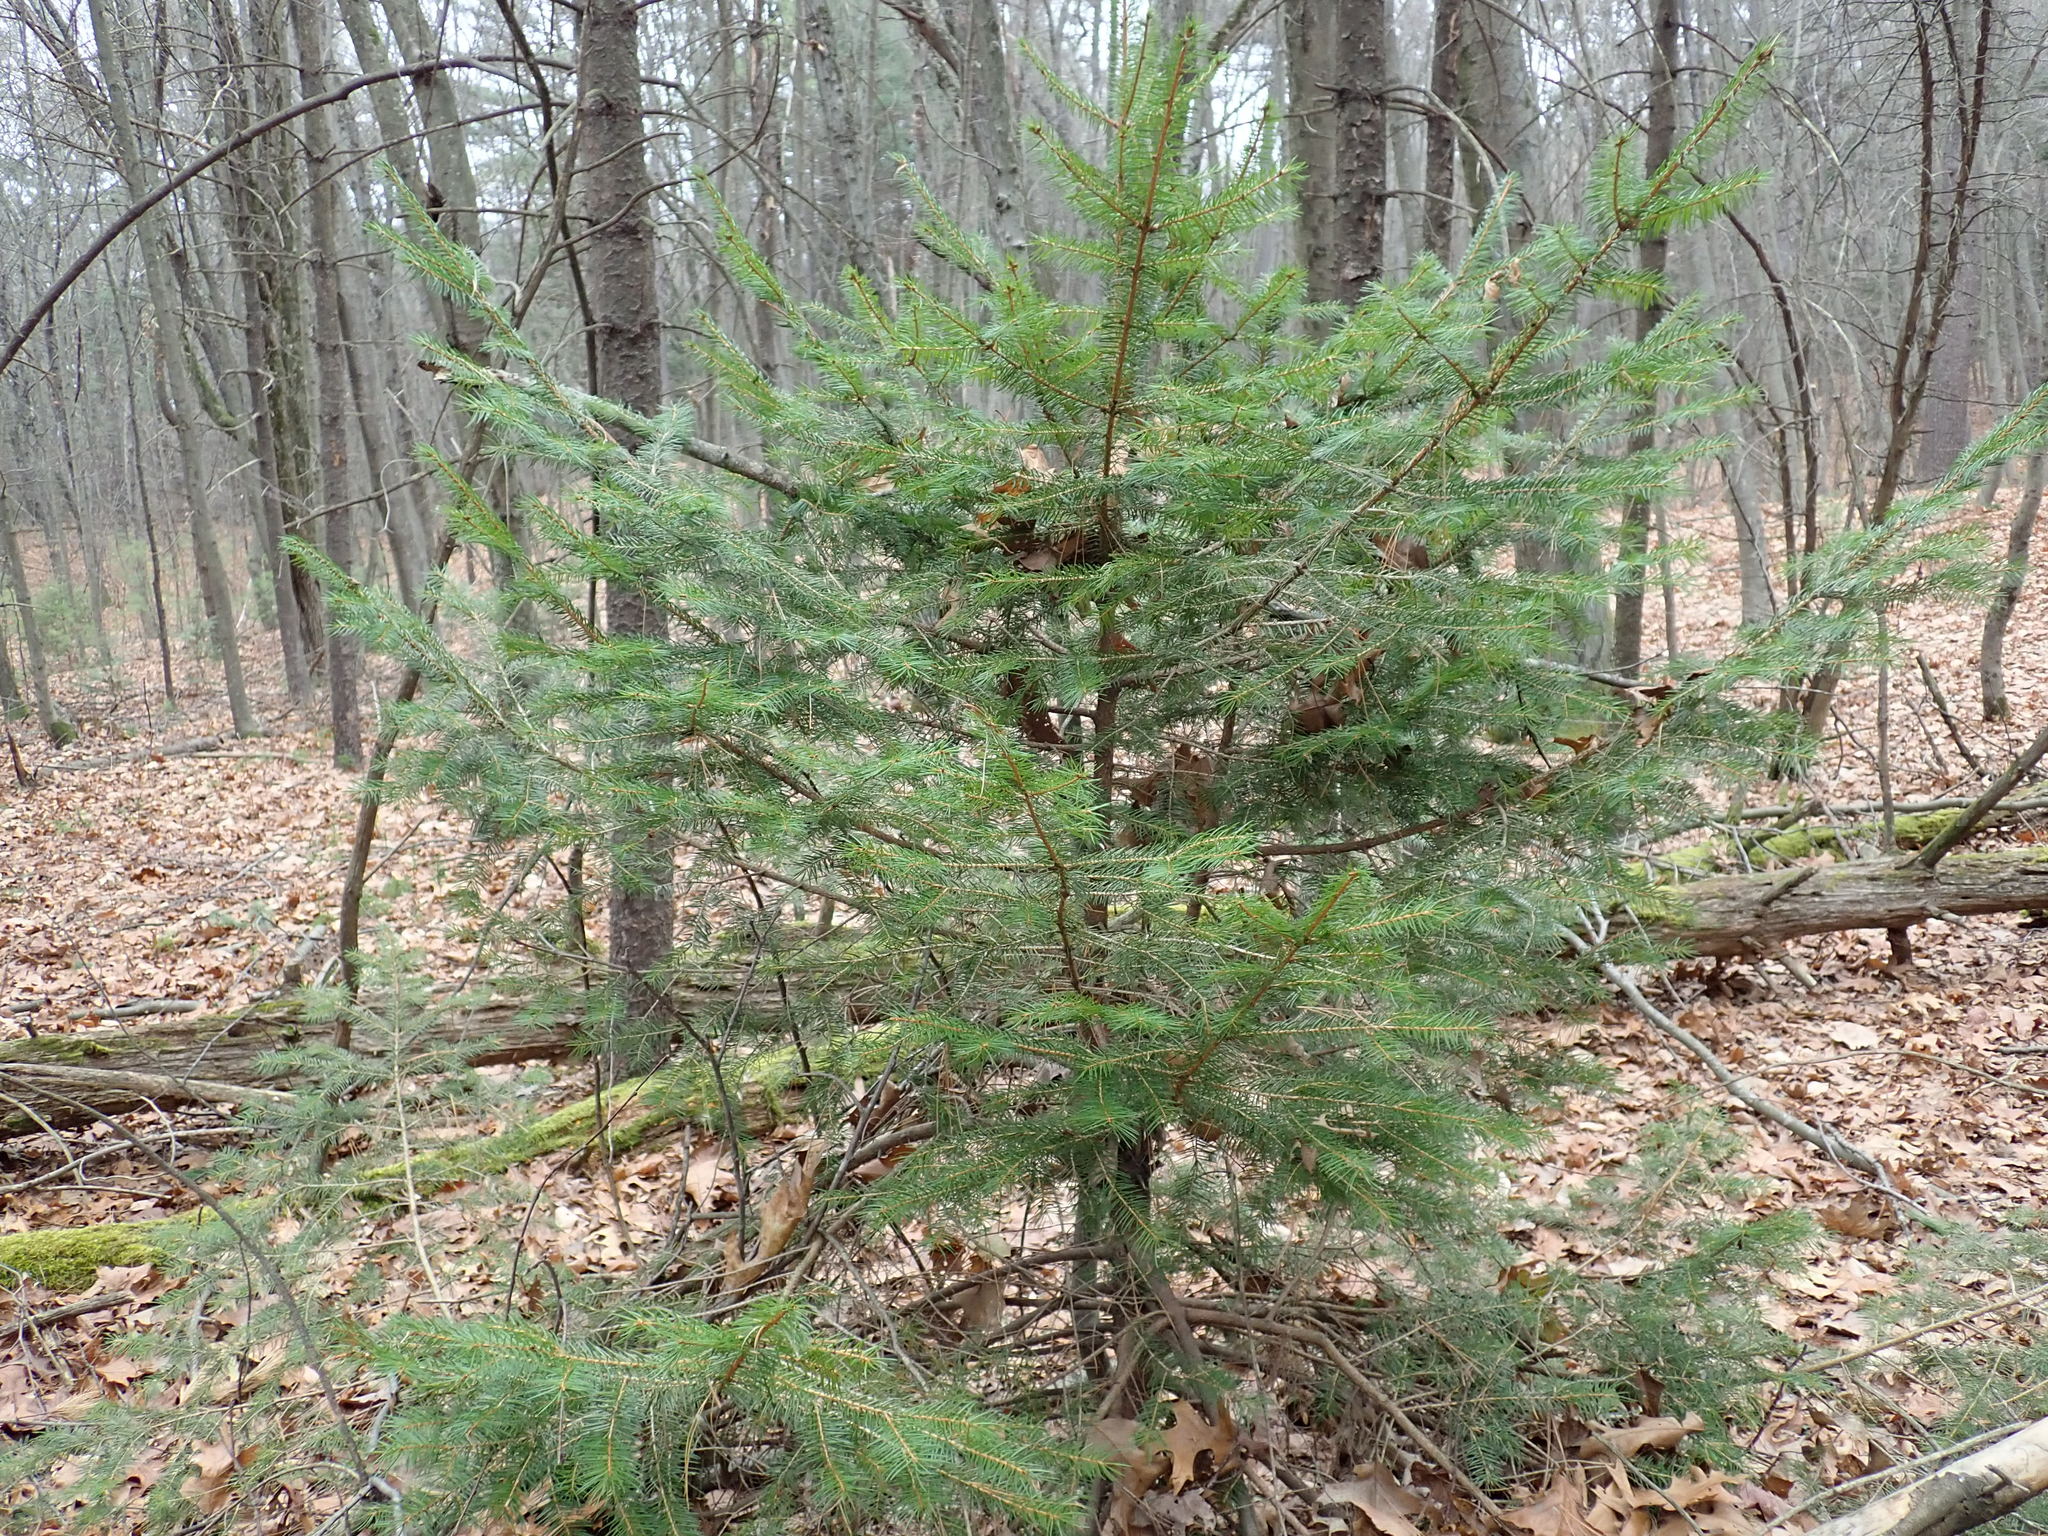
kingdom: Plantae
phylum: Tracheophyta
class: Pinopsida
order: Pinales
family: Pinaceae
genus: Picea
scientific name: Picea abies
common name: Norway spruce
